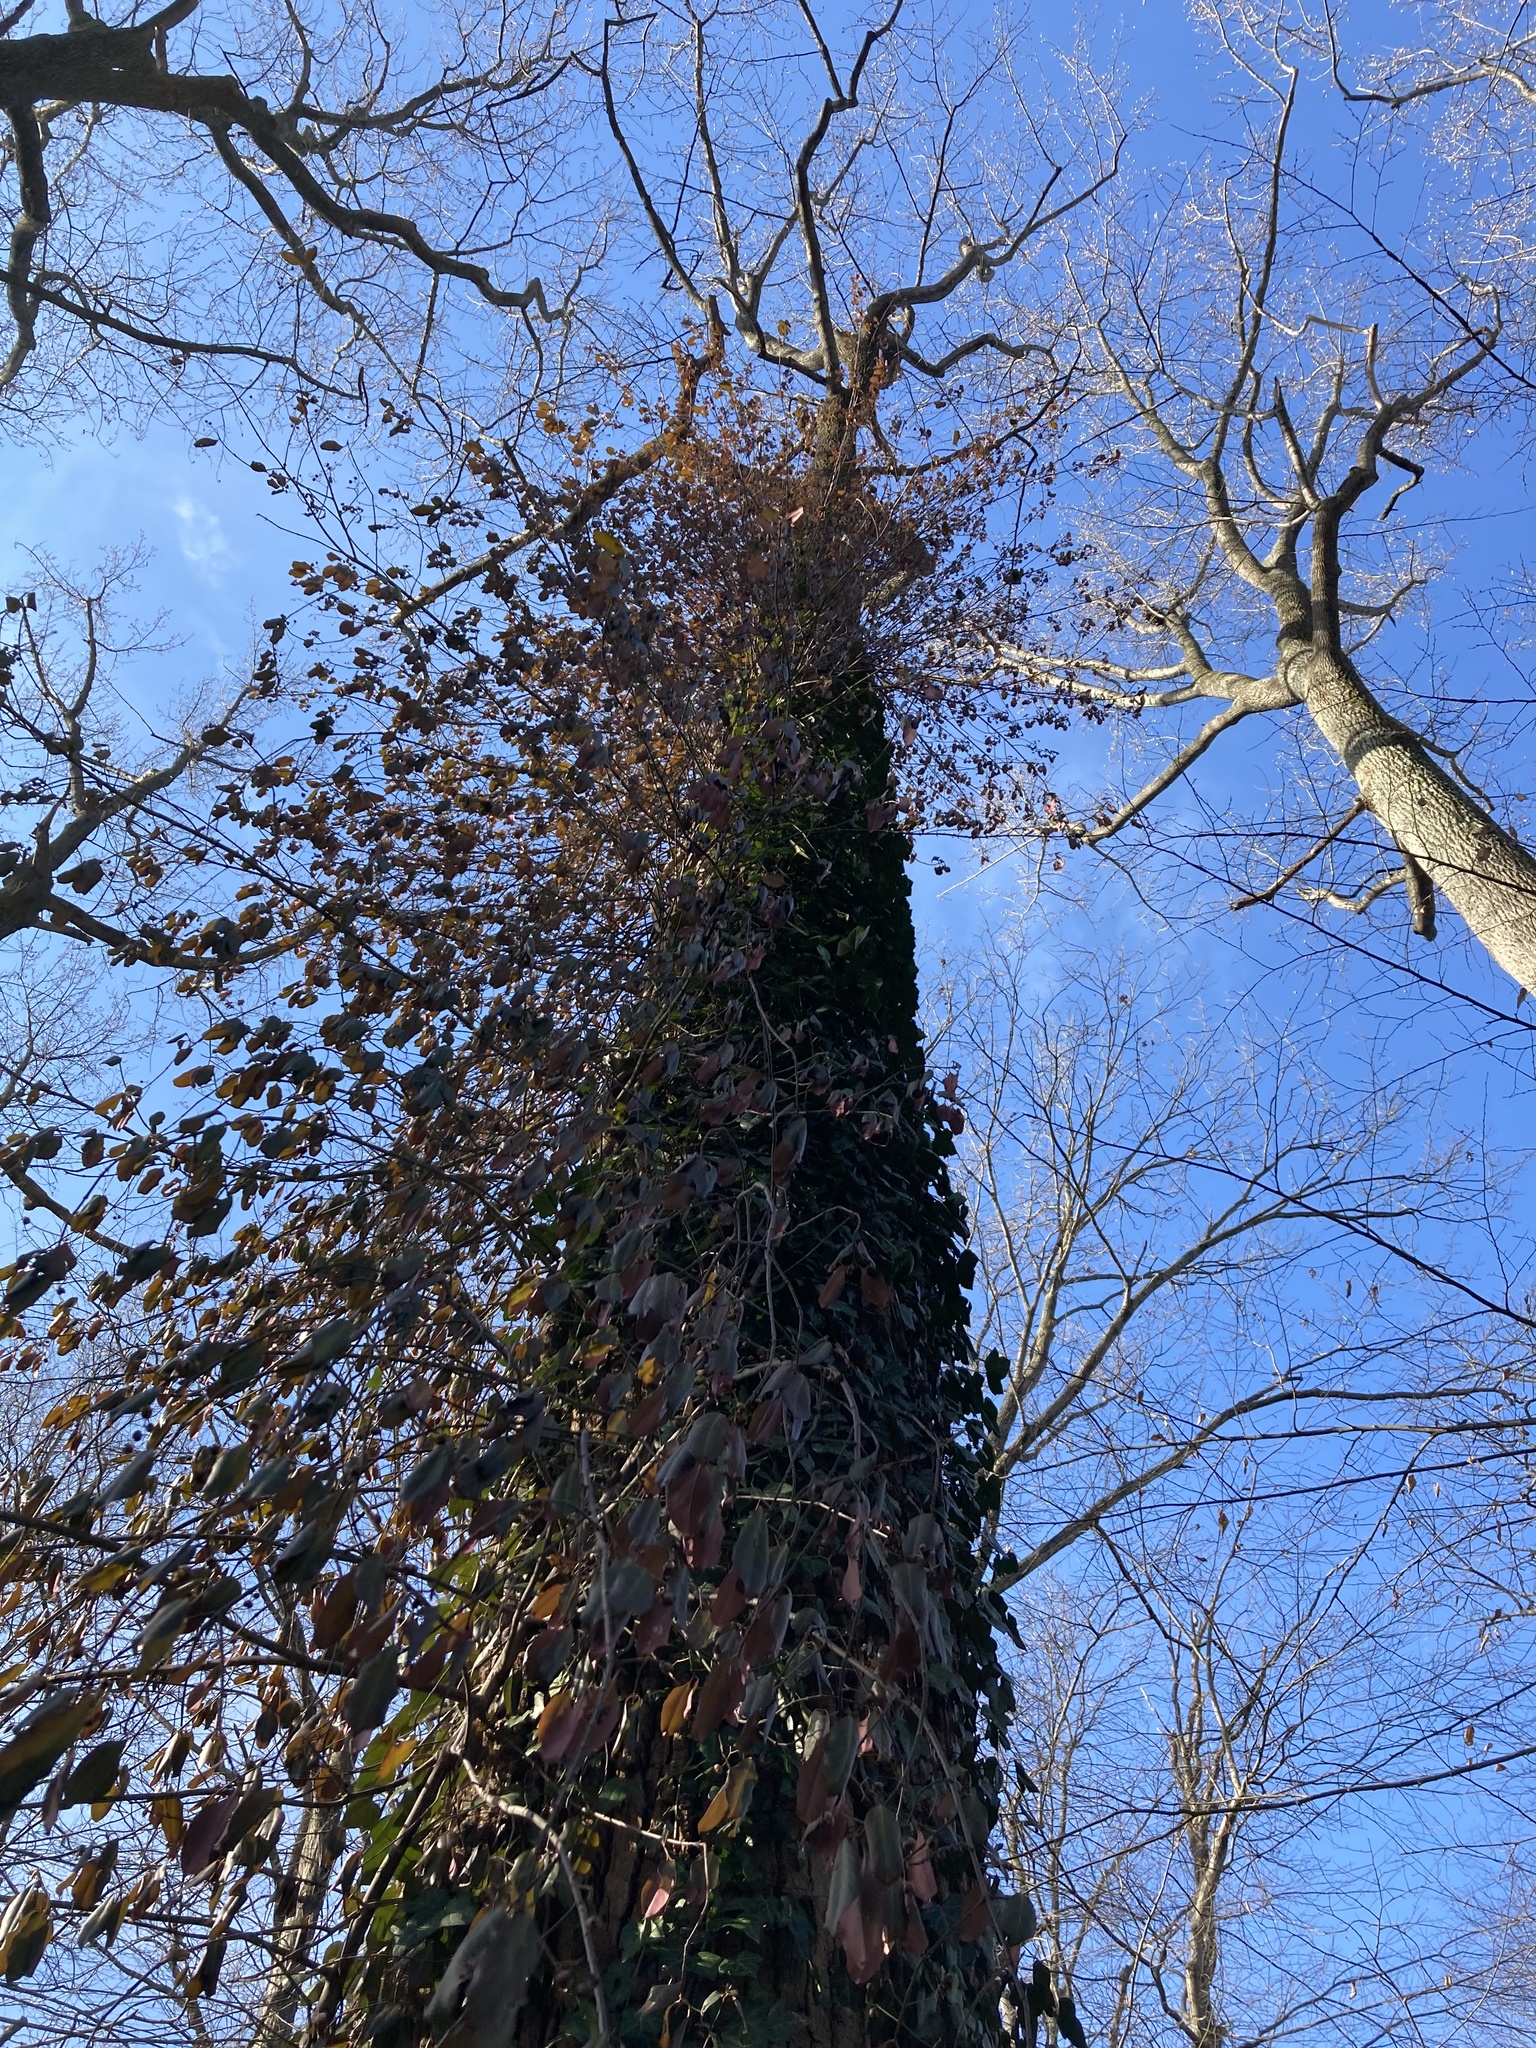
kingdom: Plantae
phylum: Tracheophyta
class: Magnoliopsida
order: Celastrales
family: Celastraceae
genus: Euonymus
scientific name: Euonymus fortunei
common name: Climbing euonymus
